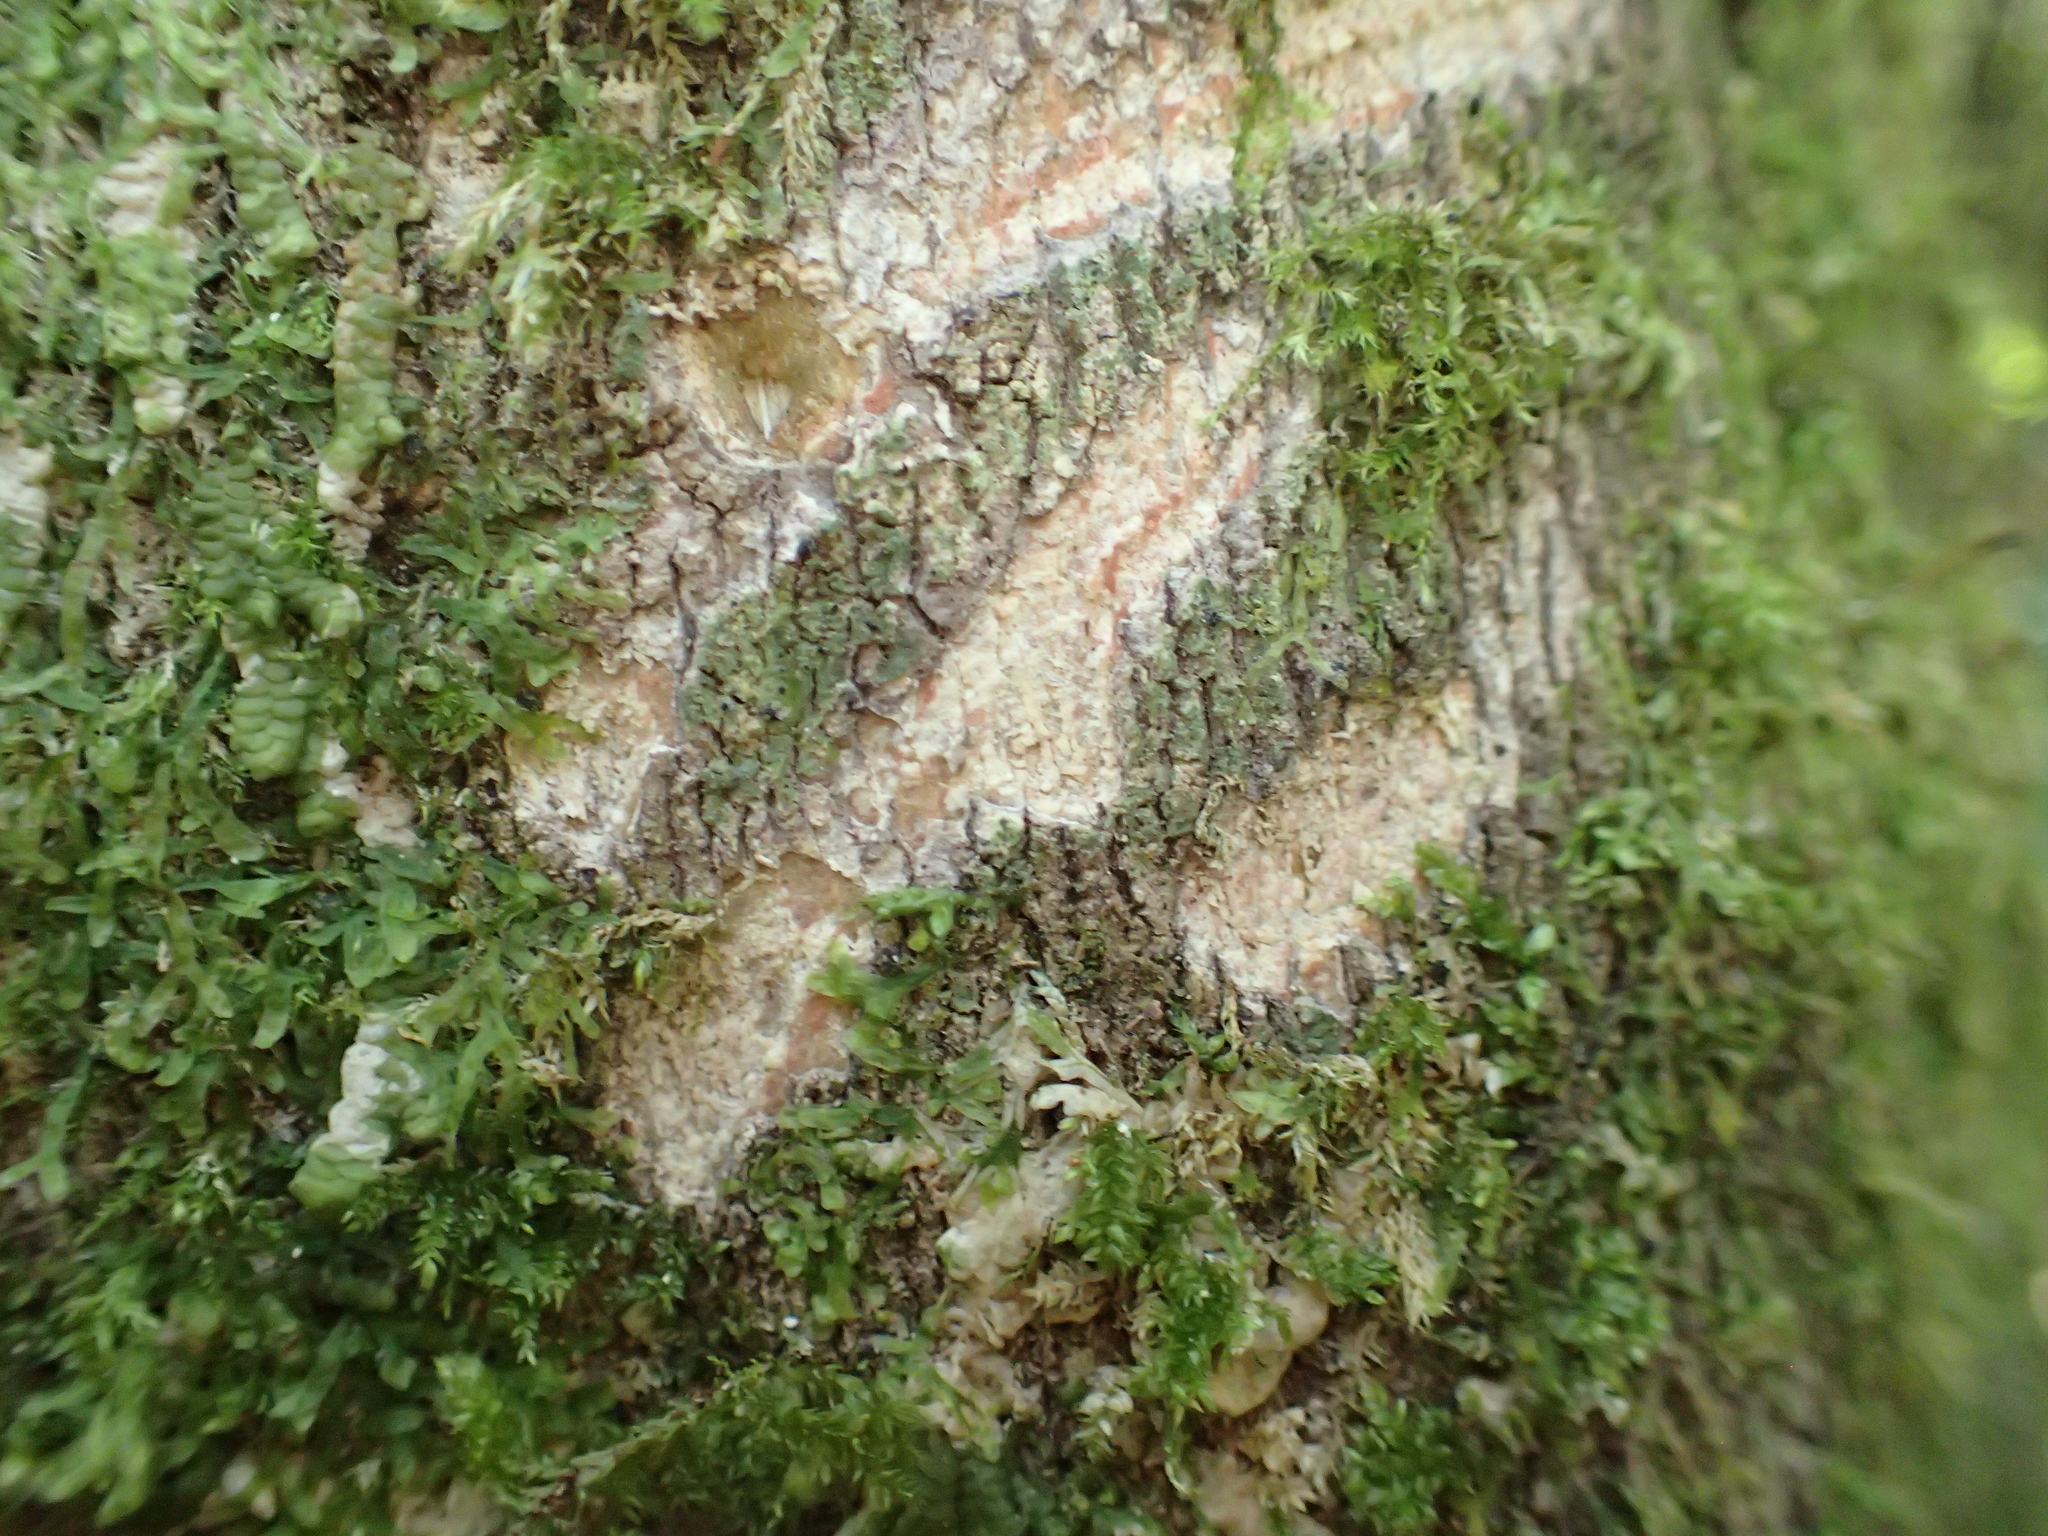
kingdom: Animalia
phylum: Chordata
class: Mammalia
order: Diprotodontia
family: Phalangeridae
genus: Trichosurus
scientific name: Trichosurus vulpecula
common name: Common brushtail
